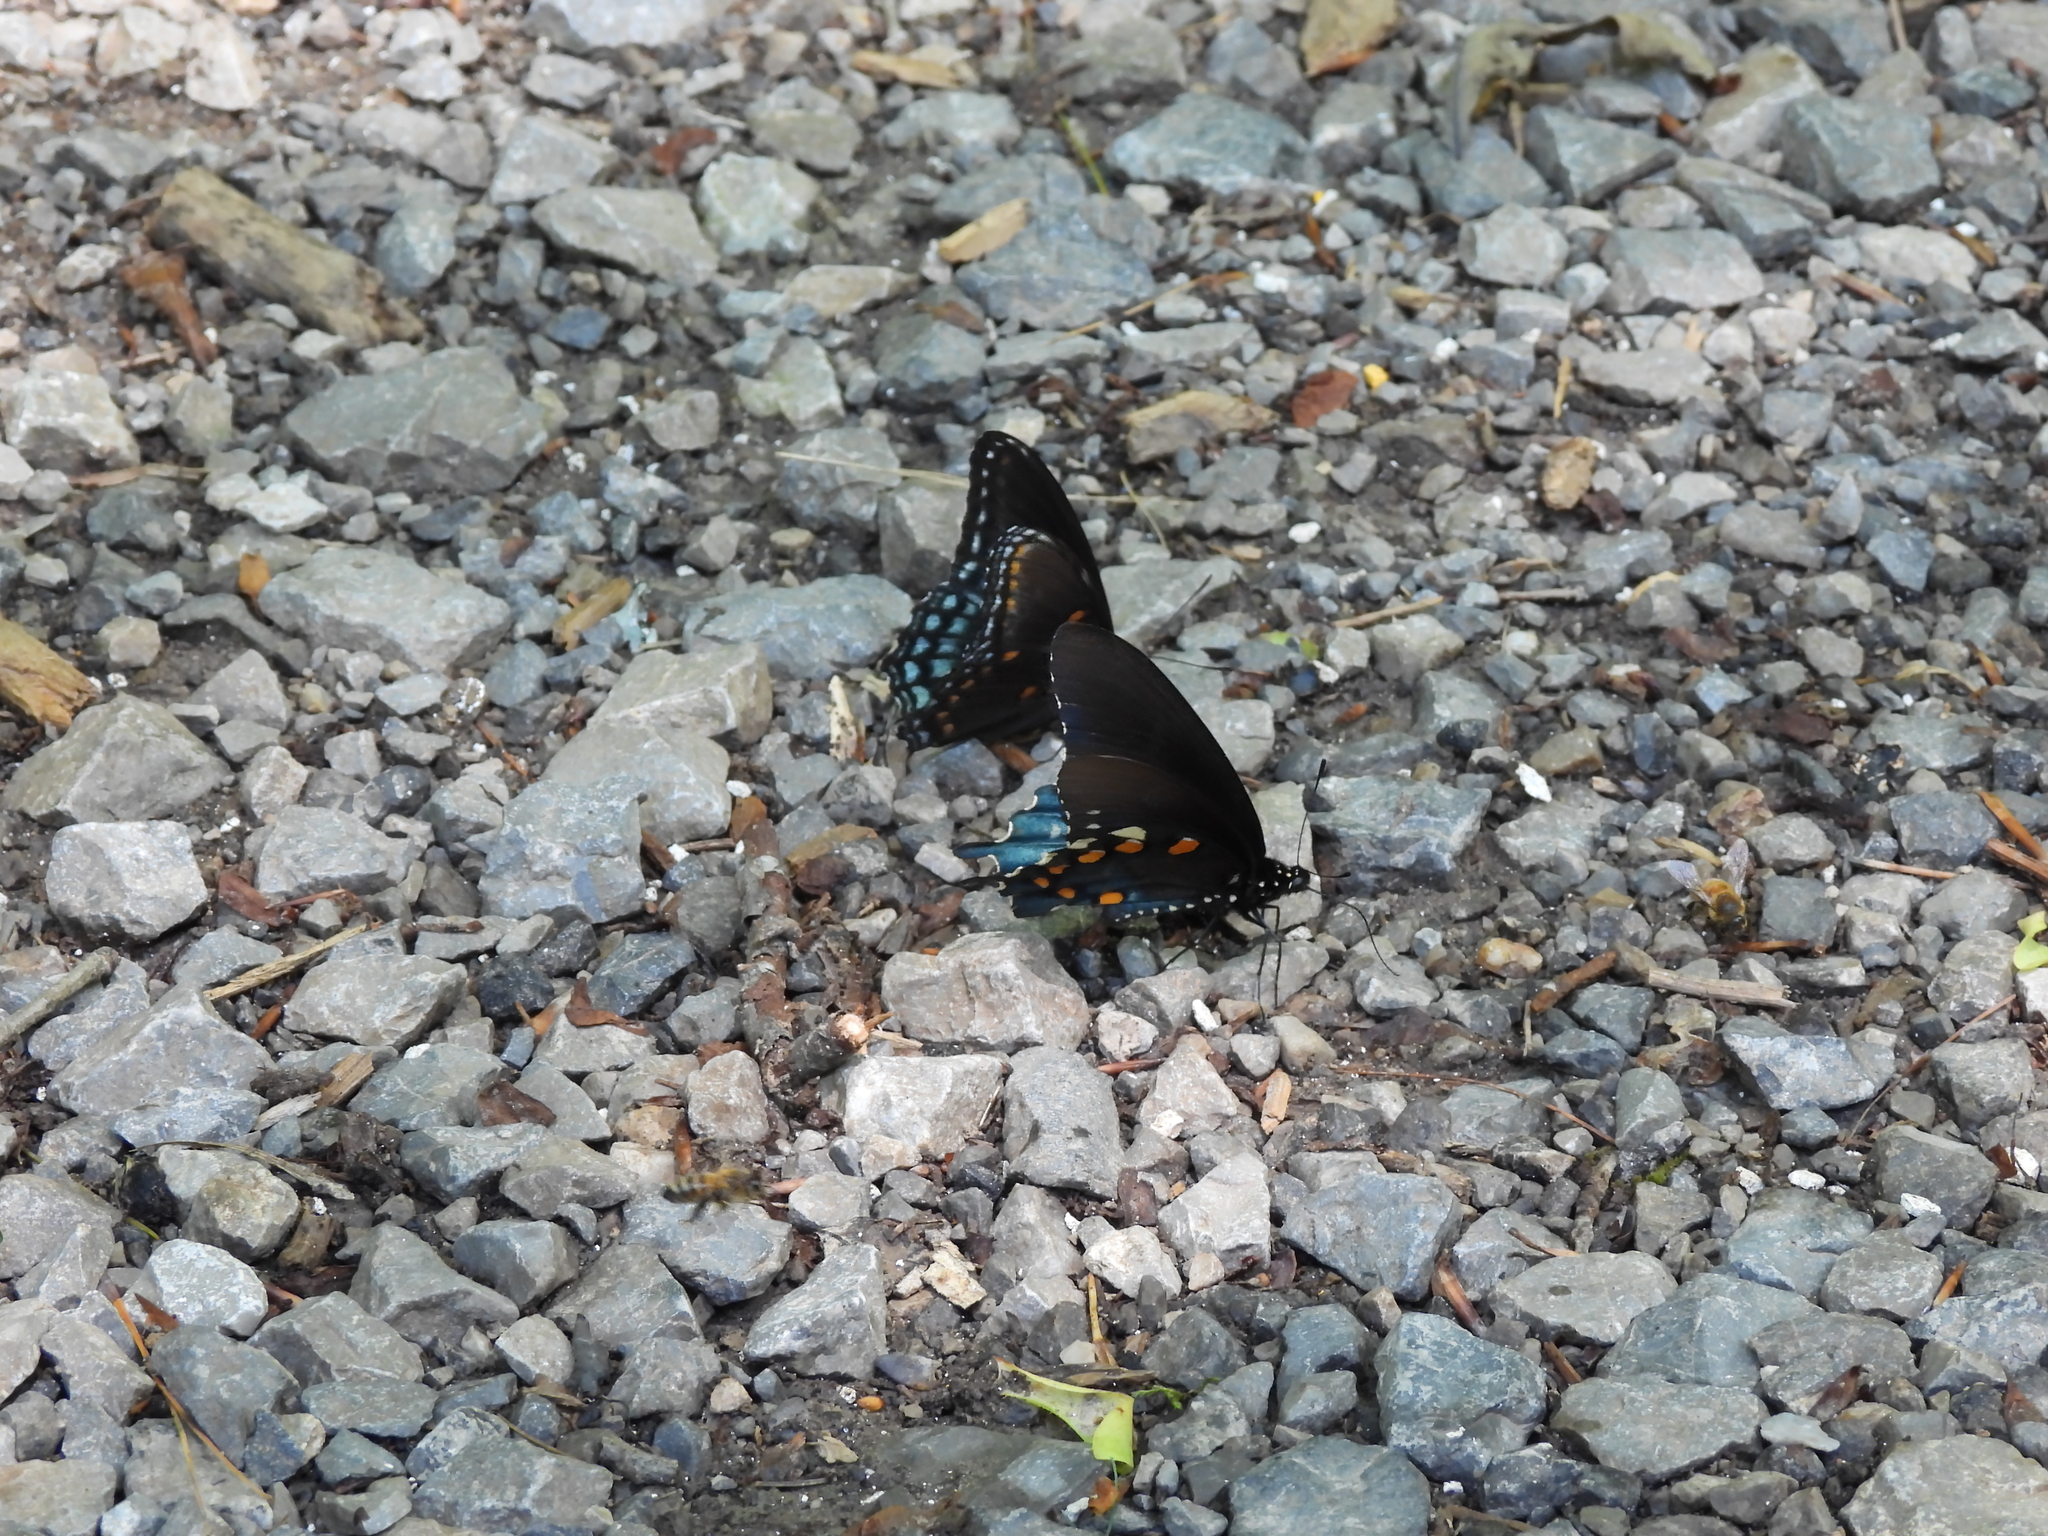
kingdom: Animalia
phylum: Arthropoda
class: Insecta
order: Lepidoptera
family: Papilionidae
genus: Battus
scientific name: Battus philenor
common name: Pipevine swallowtail
